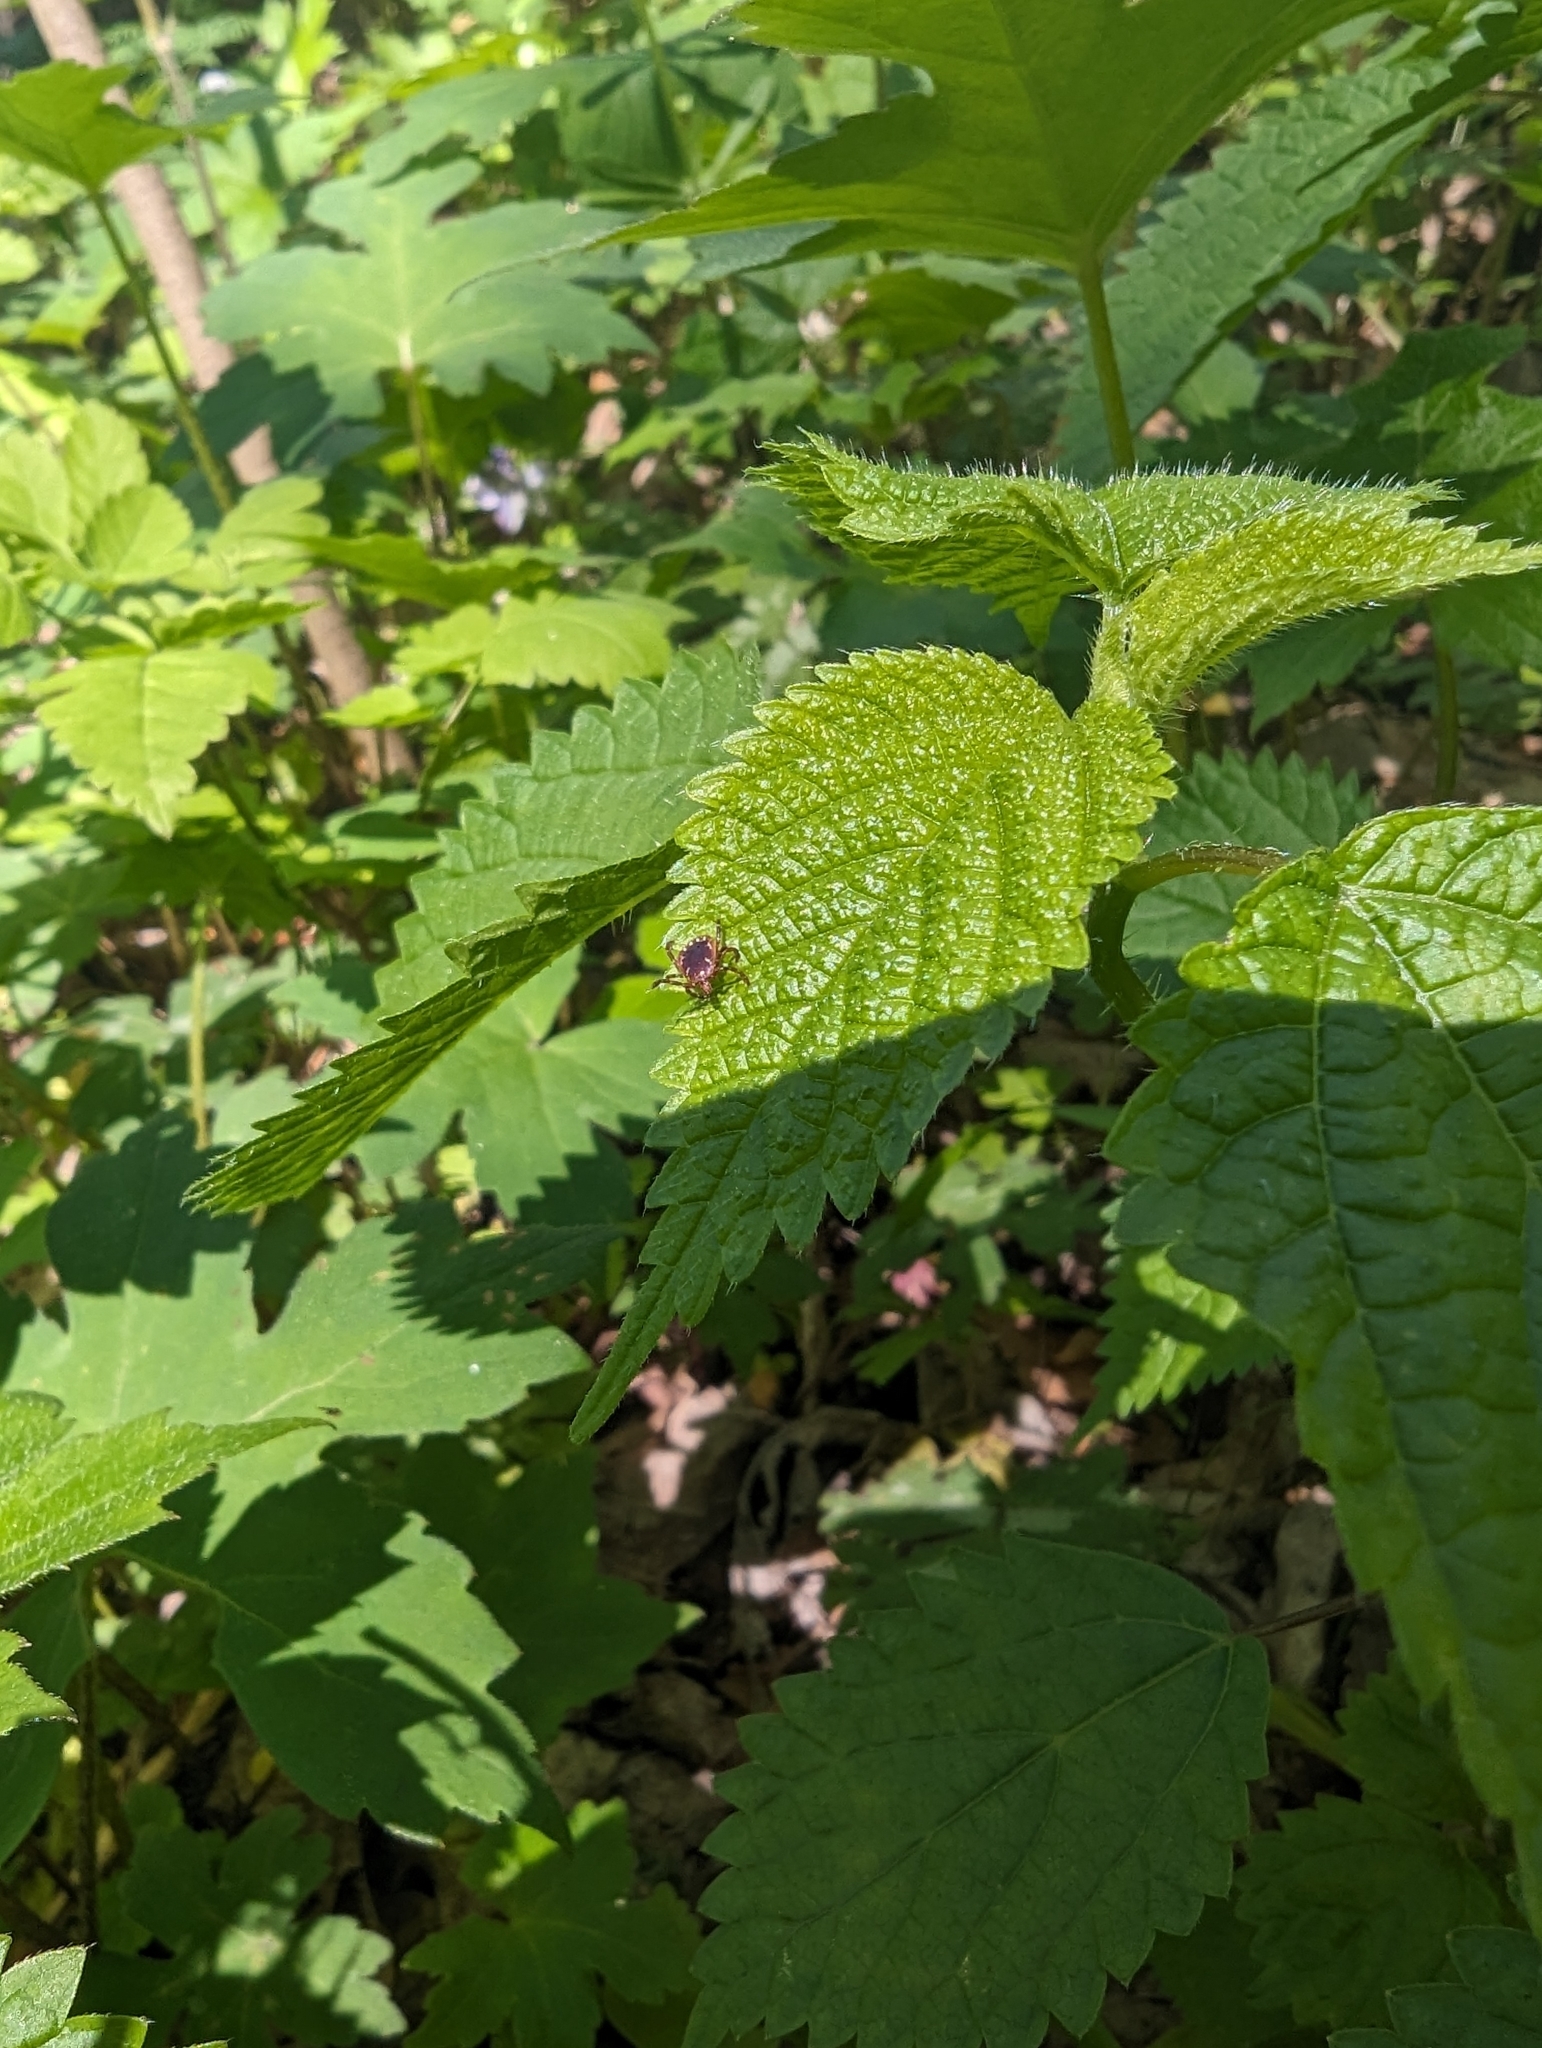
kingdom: Animalia
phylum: Arthropoda
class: Arachnida
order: Ixodida
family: Ixodidae
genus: Amblyomma
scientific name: Amblyomma americanum
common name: Lone star tick
